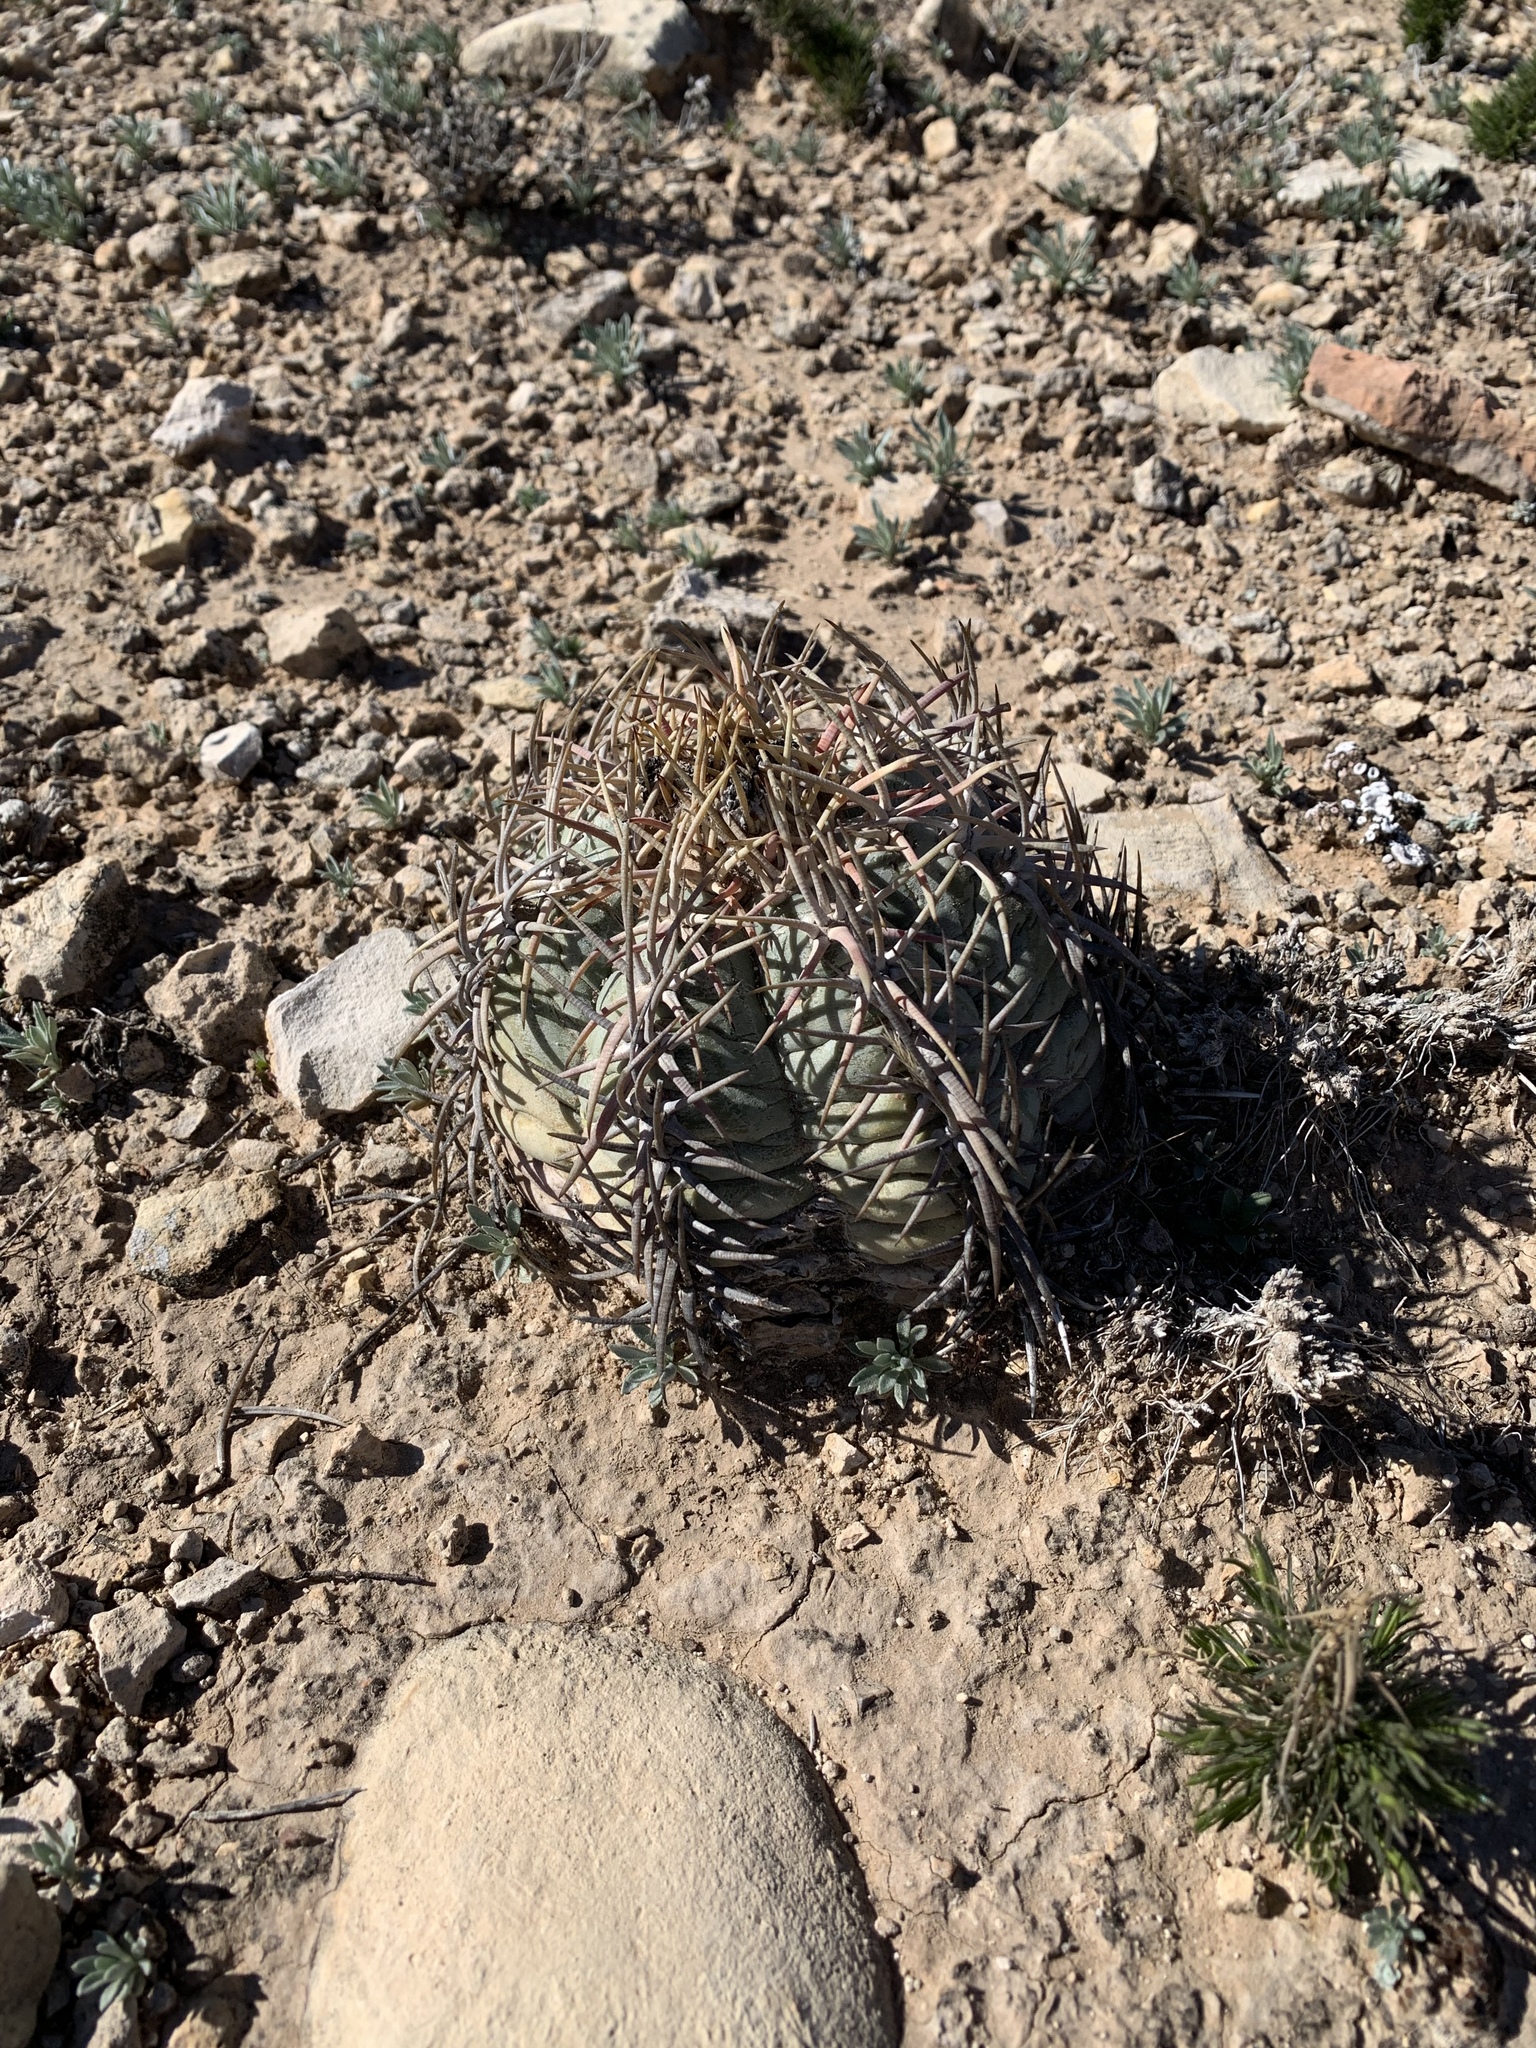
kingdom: Plantae
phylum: Tracheophyta
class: Magnoliopsida
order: Caryophyllales
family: Cactaceae
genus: Echinocactus
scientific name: Echinocactus horizonthalonius
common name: Devilshead
